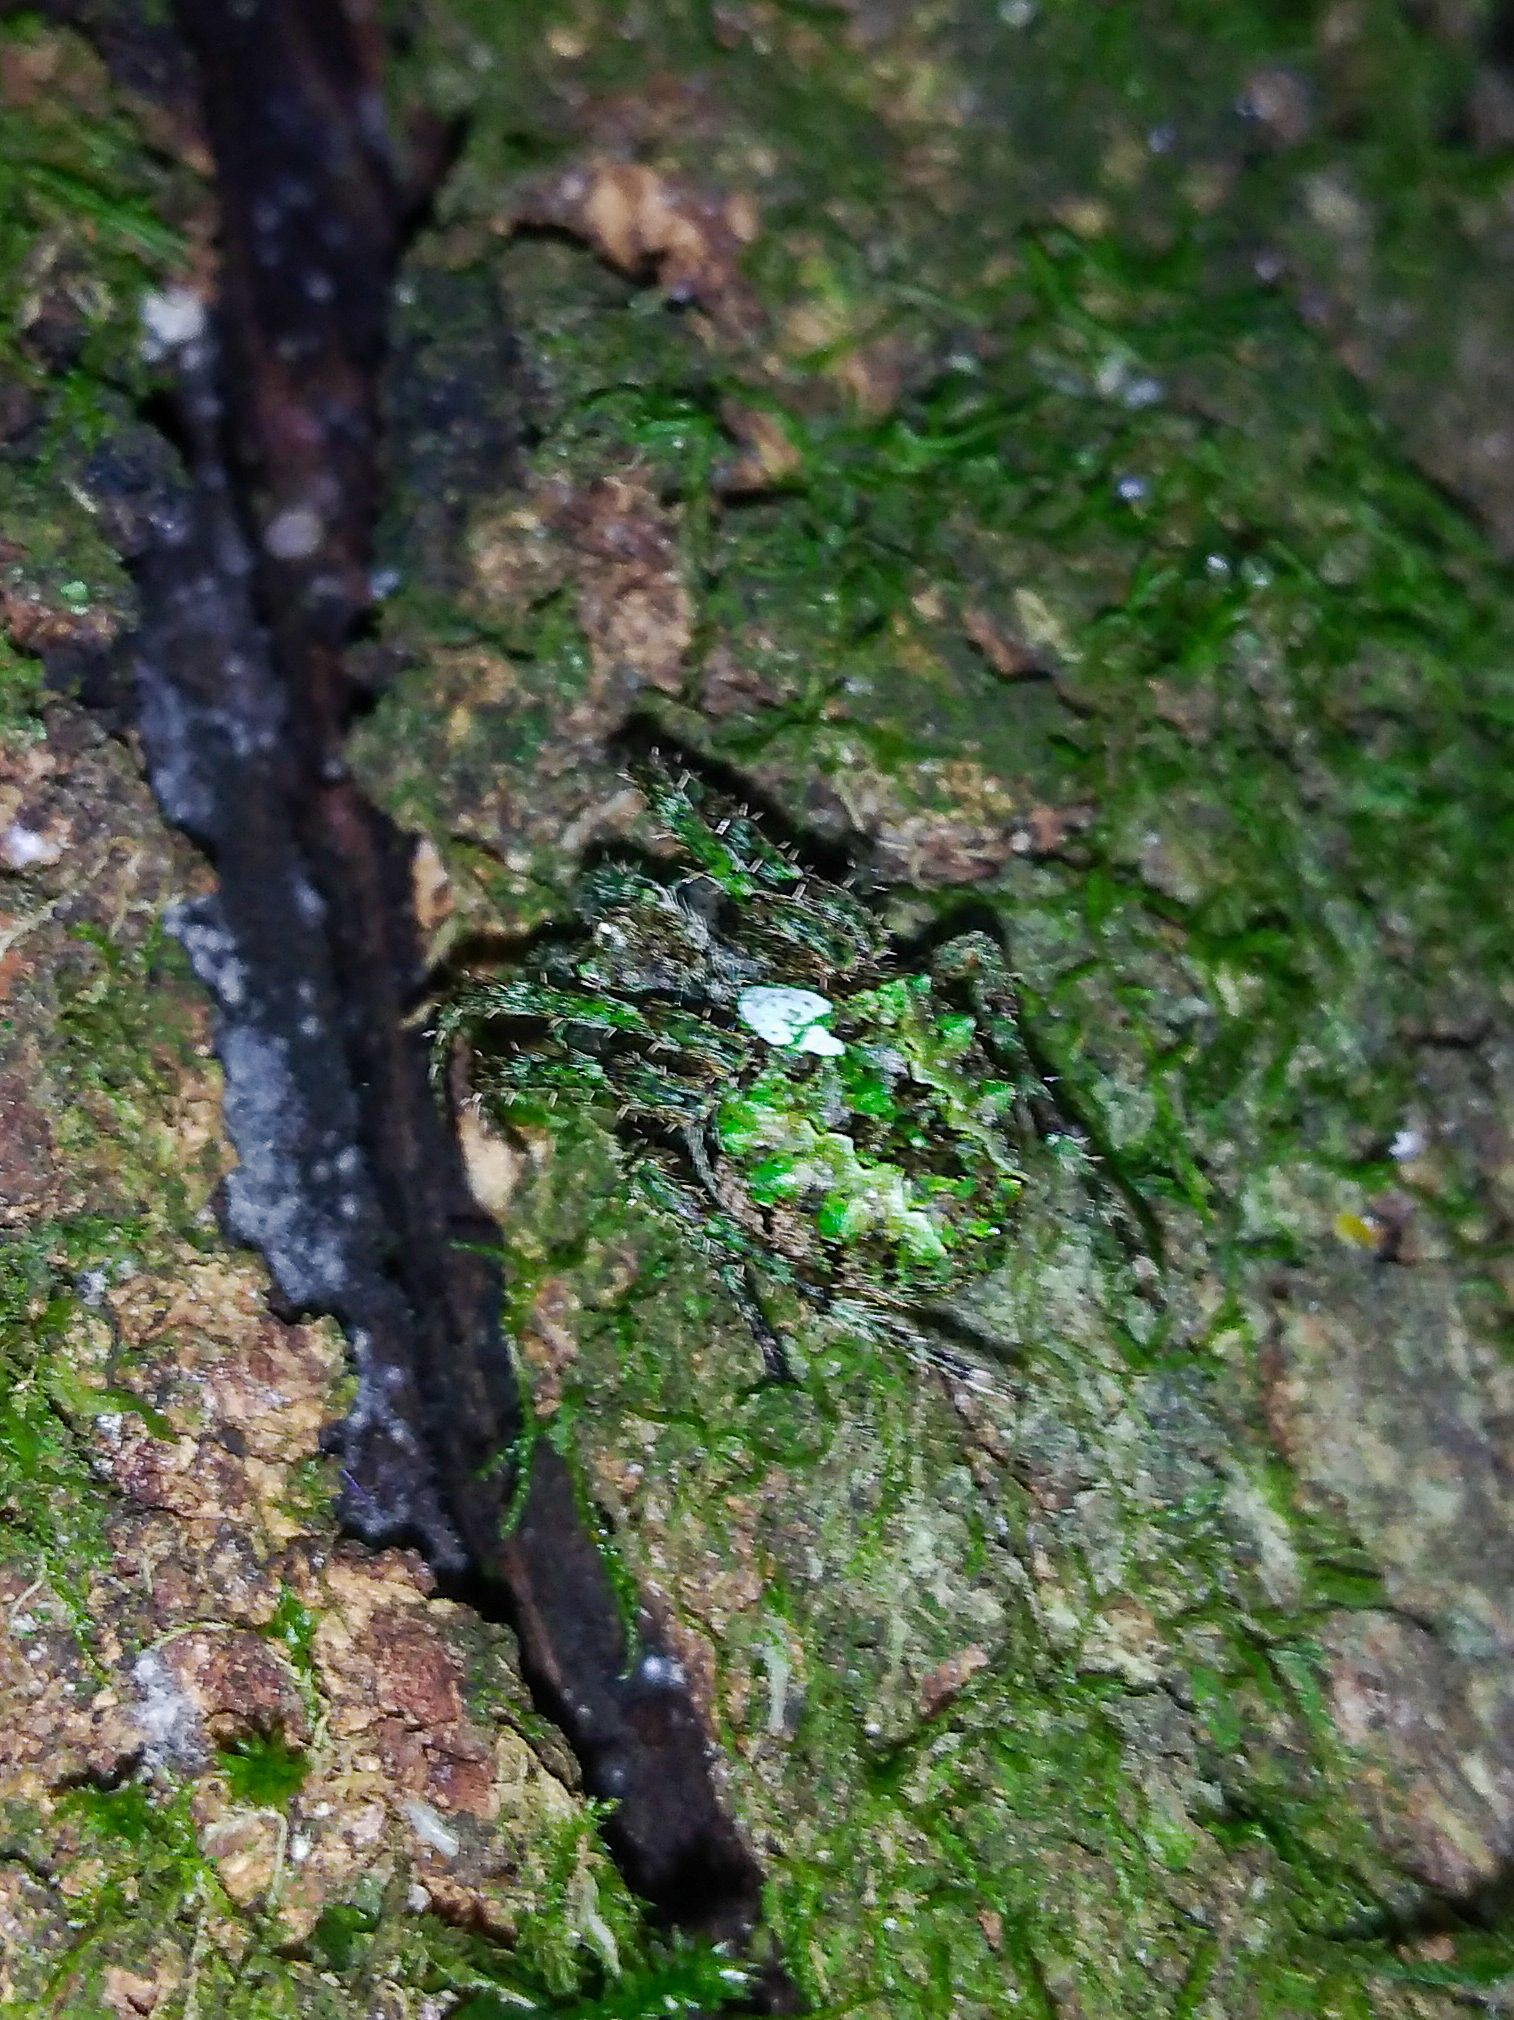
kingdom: Animalia
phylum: Arthropoda
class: Arachnida
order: Araneae
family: Araneidae
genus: Parawixia
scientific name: Parawixia audax
